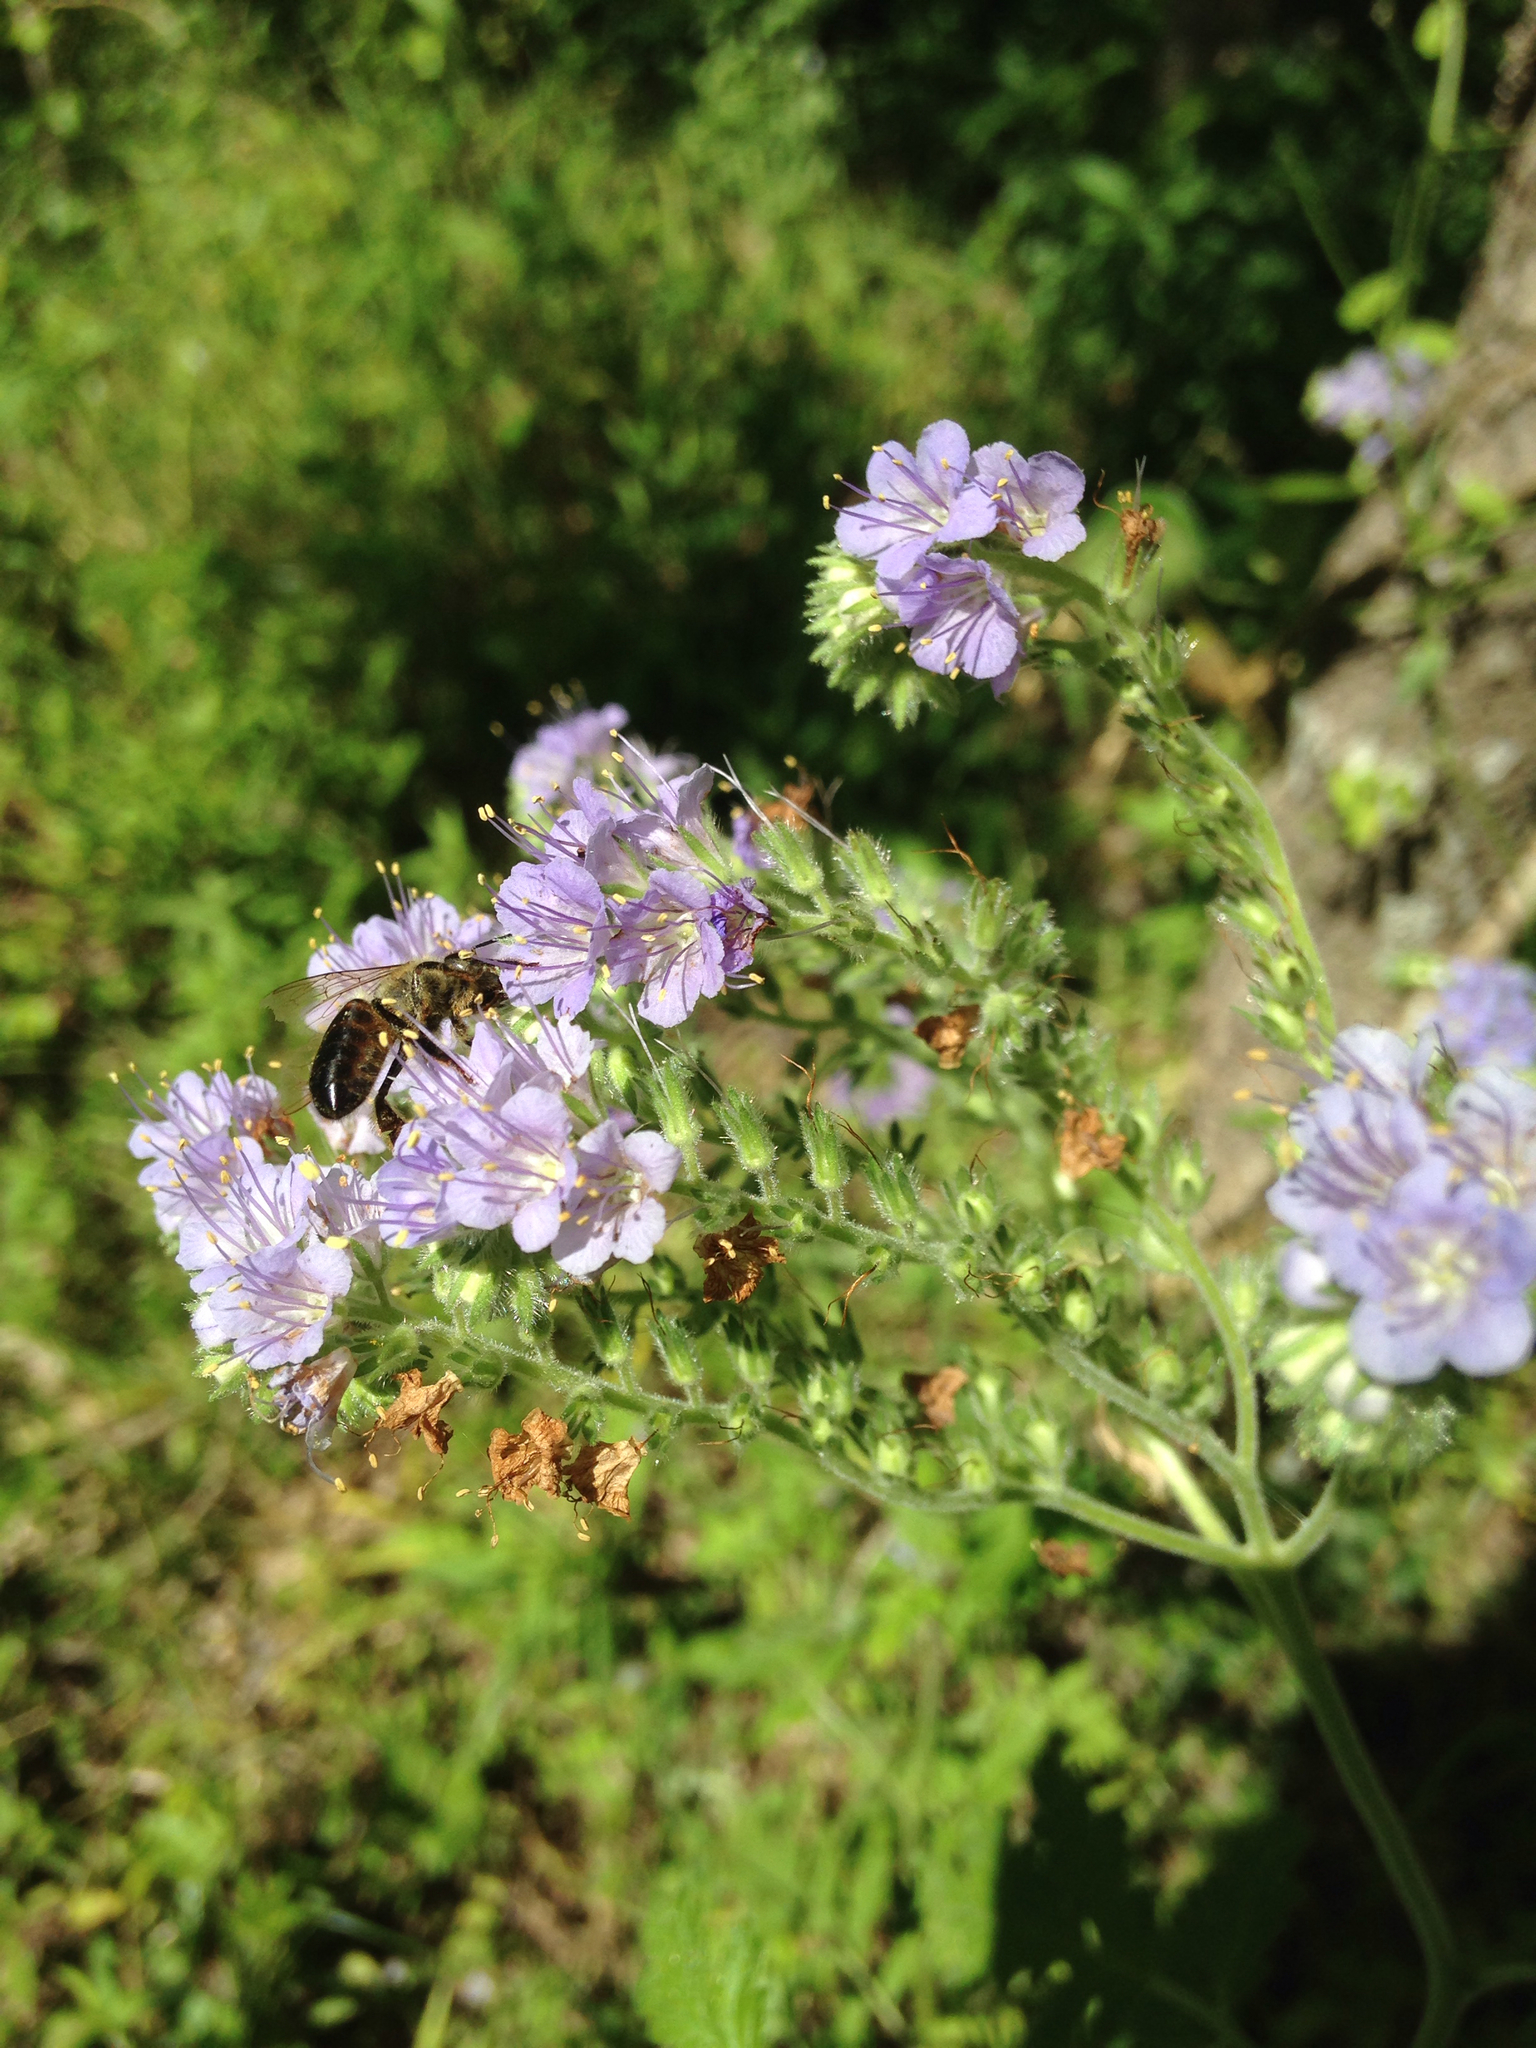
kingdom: Plantae
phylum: Tracheophyta
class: Magnoliopsida
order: Boraginales
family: Hydrophyllaceae
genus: Phacelia
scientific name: Phacelia congesta
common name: Blue curls
